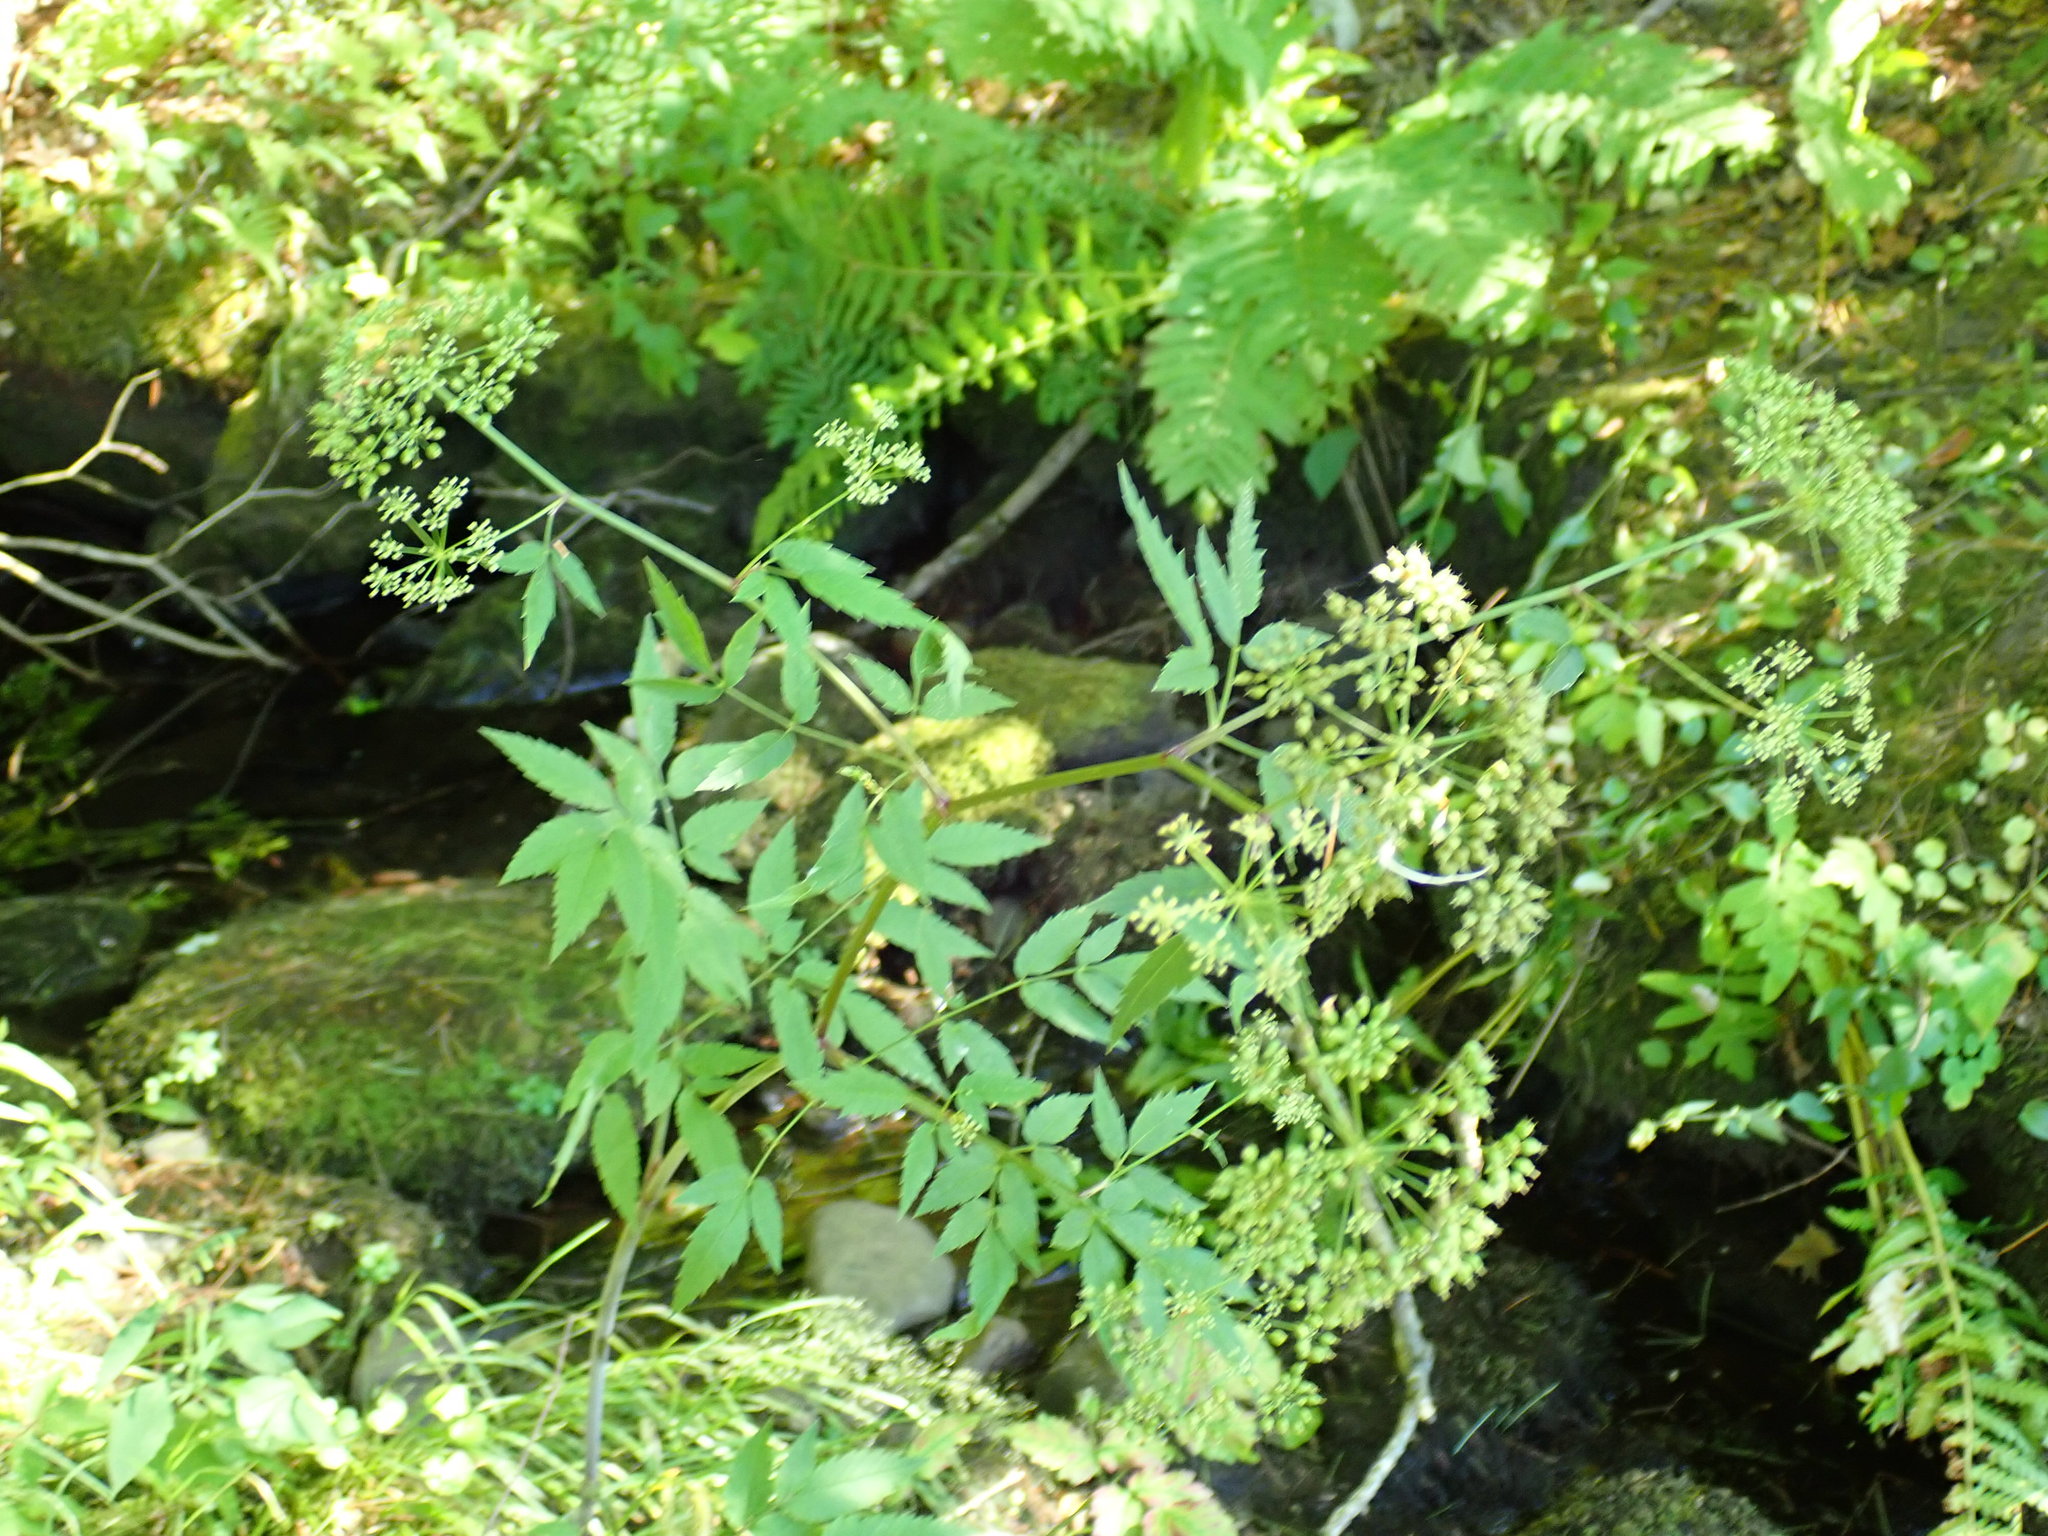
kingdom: Plantae
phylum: Tracheophyta
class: Magnoliopsida
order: Apiales
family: Apiaceae
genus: Cicuta
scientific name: Cicuta maculata
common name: Spotted cowbane
